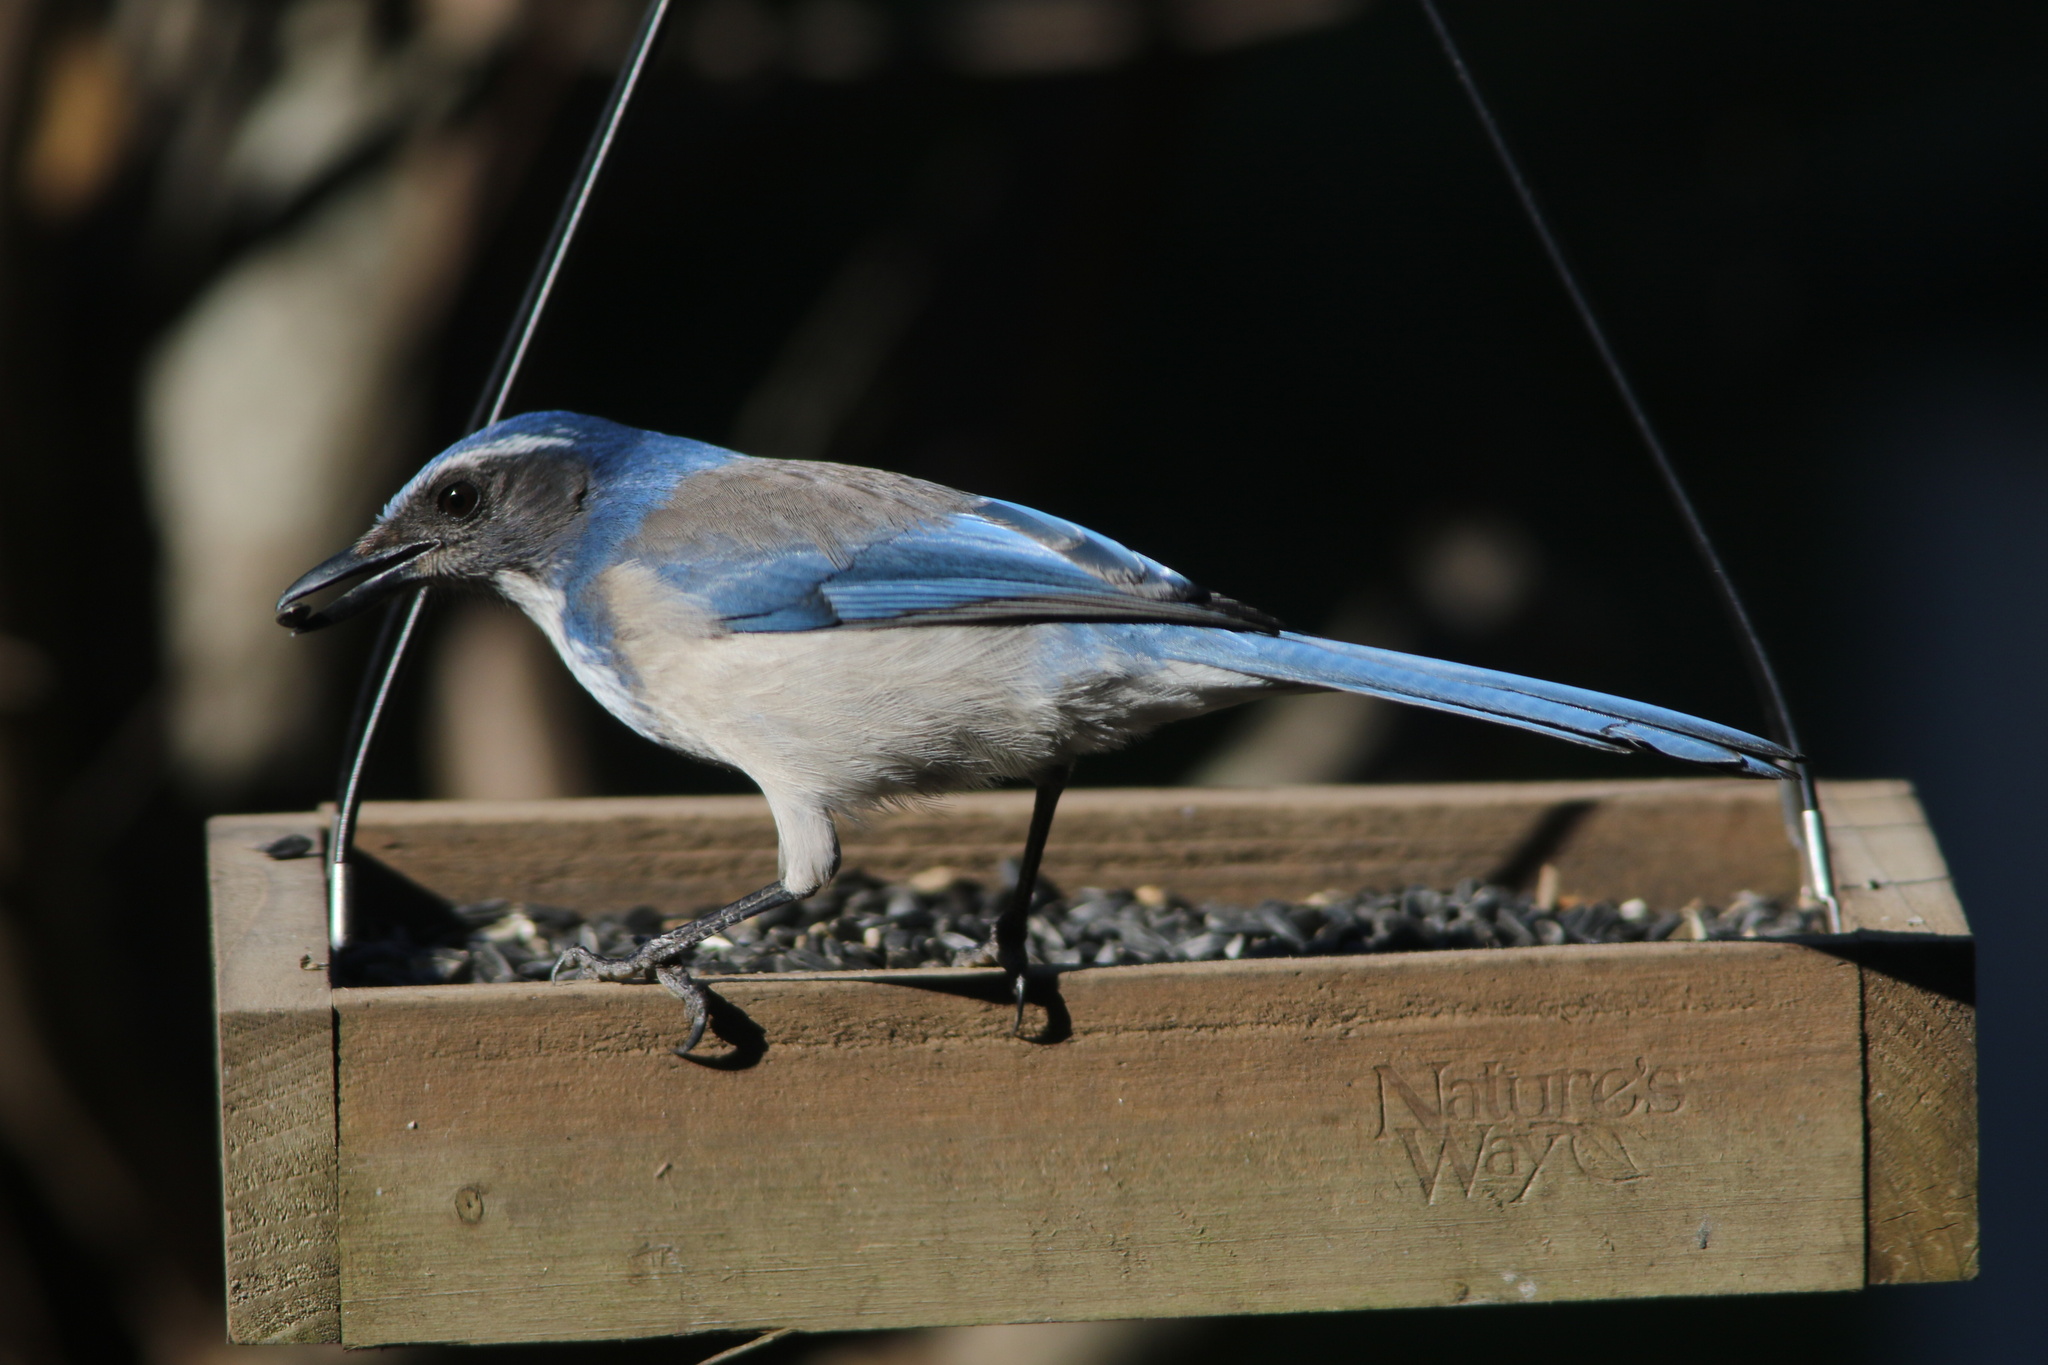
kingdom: Animalia
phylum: Chordata
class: Aves
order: Passeriformes
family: Corvidae
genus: Aphelocoma
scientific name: Aphelocoma californica
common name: California scrub-jay
